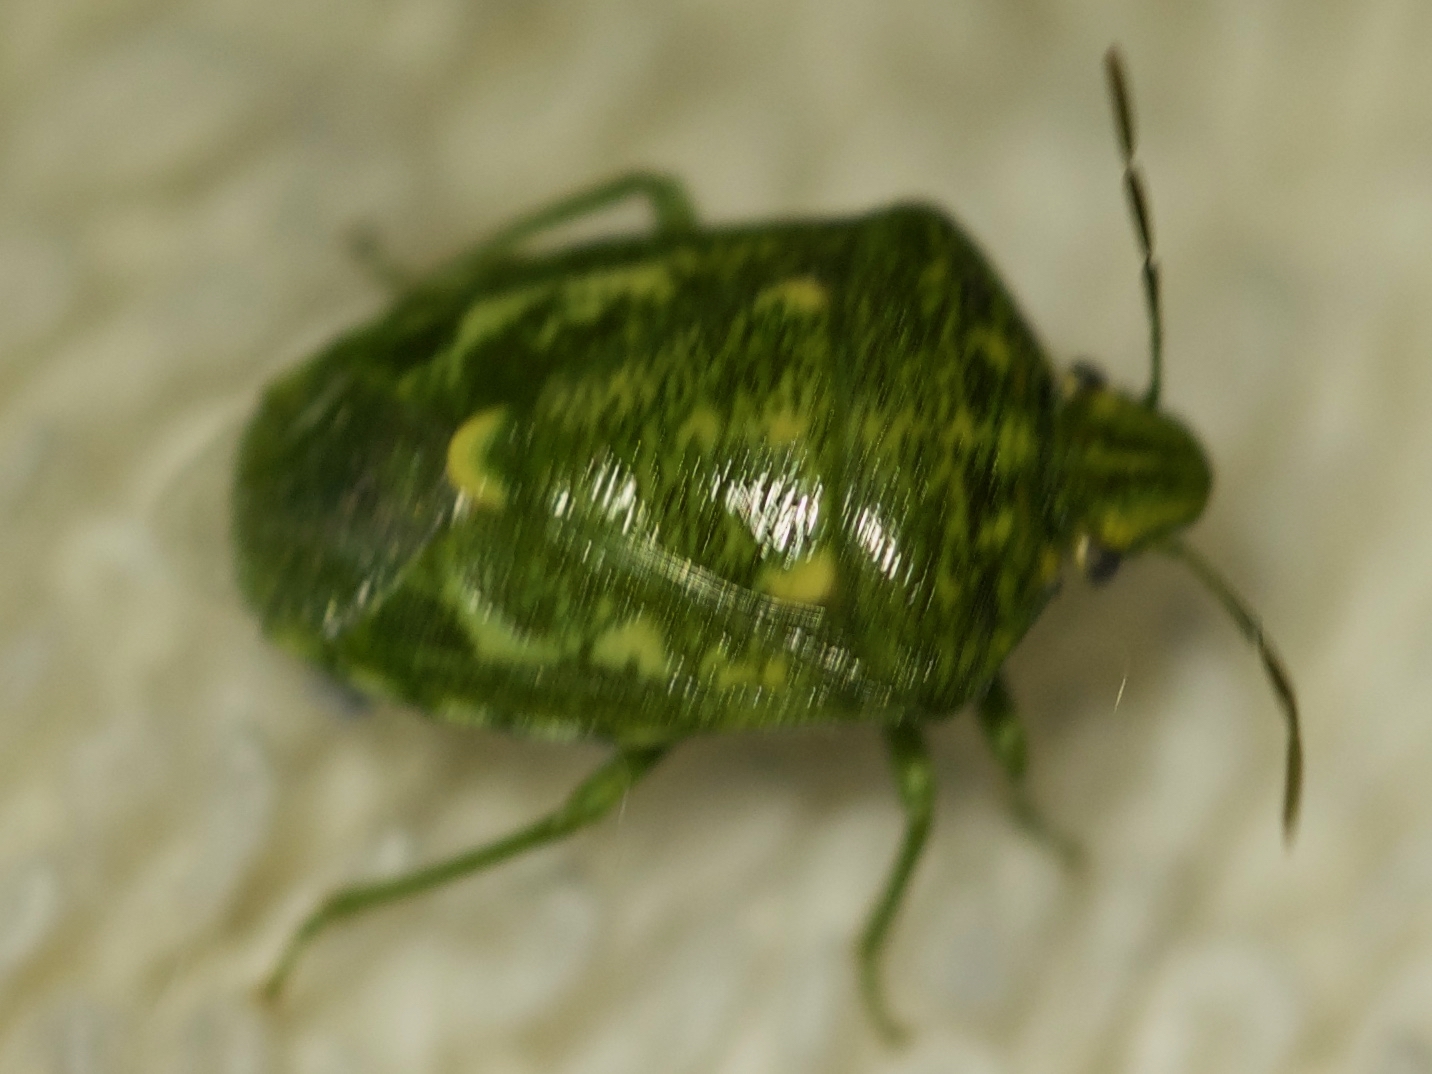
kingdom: Animalia
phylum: Arthropoda
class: Insecta
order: Hemiptera
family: Pentatomidae
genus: Banasa
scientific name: Banasa euchlora
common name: Cedar berry bug
